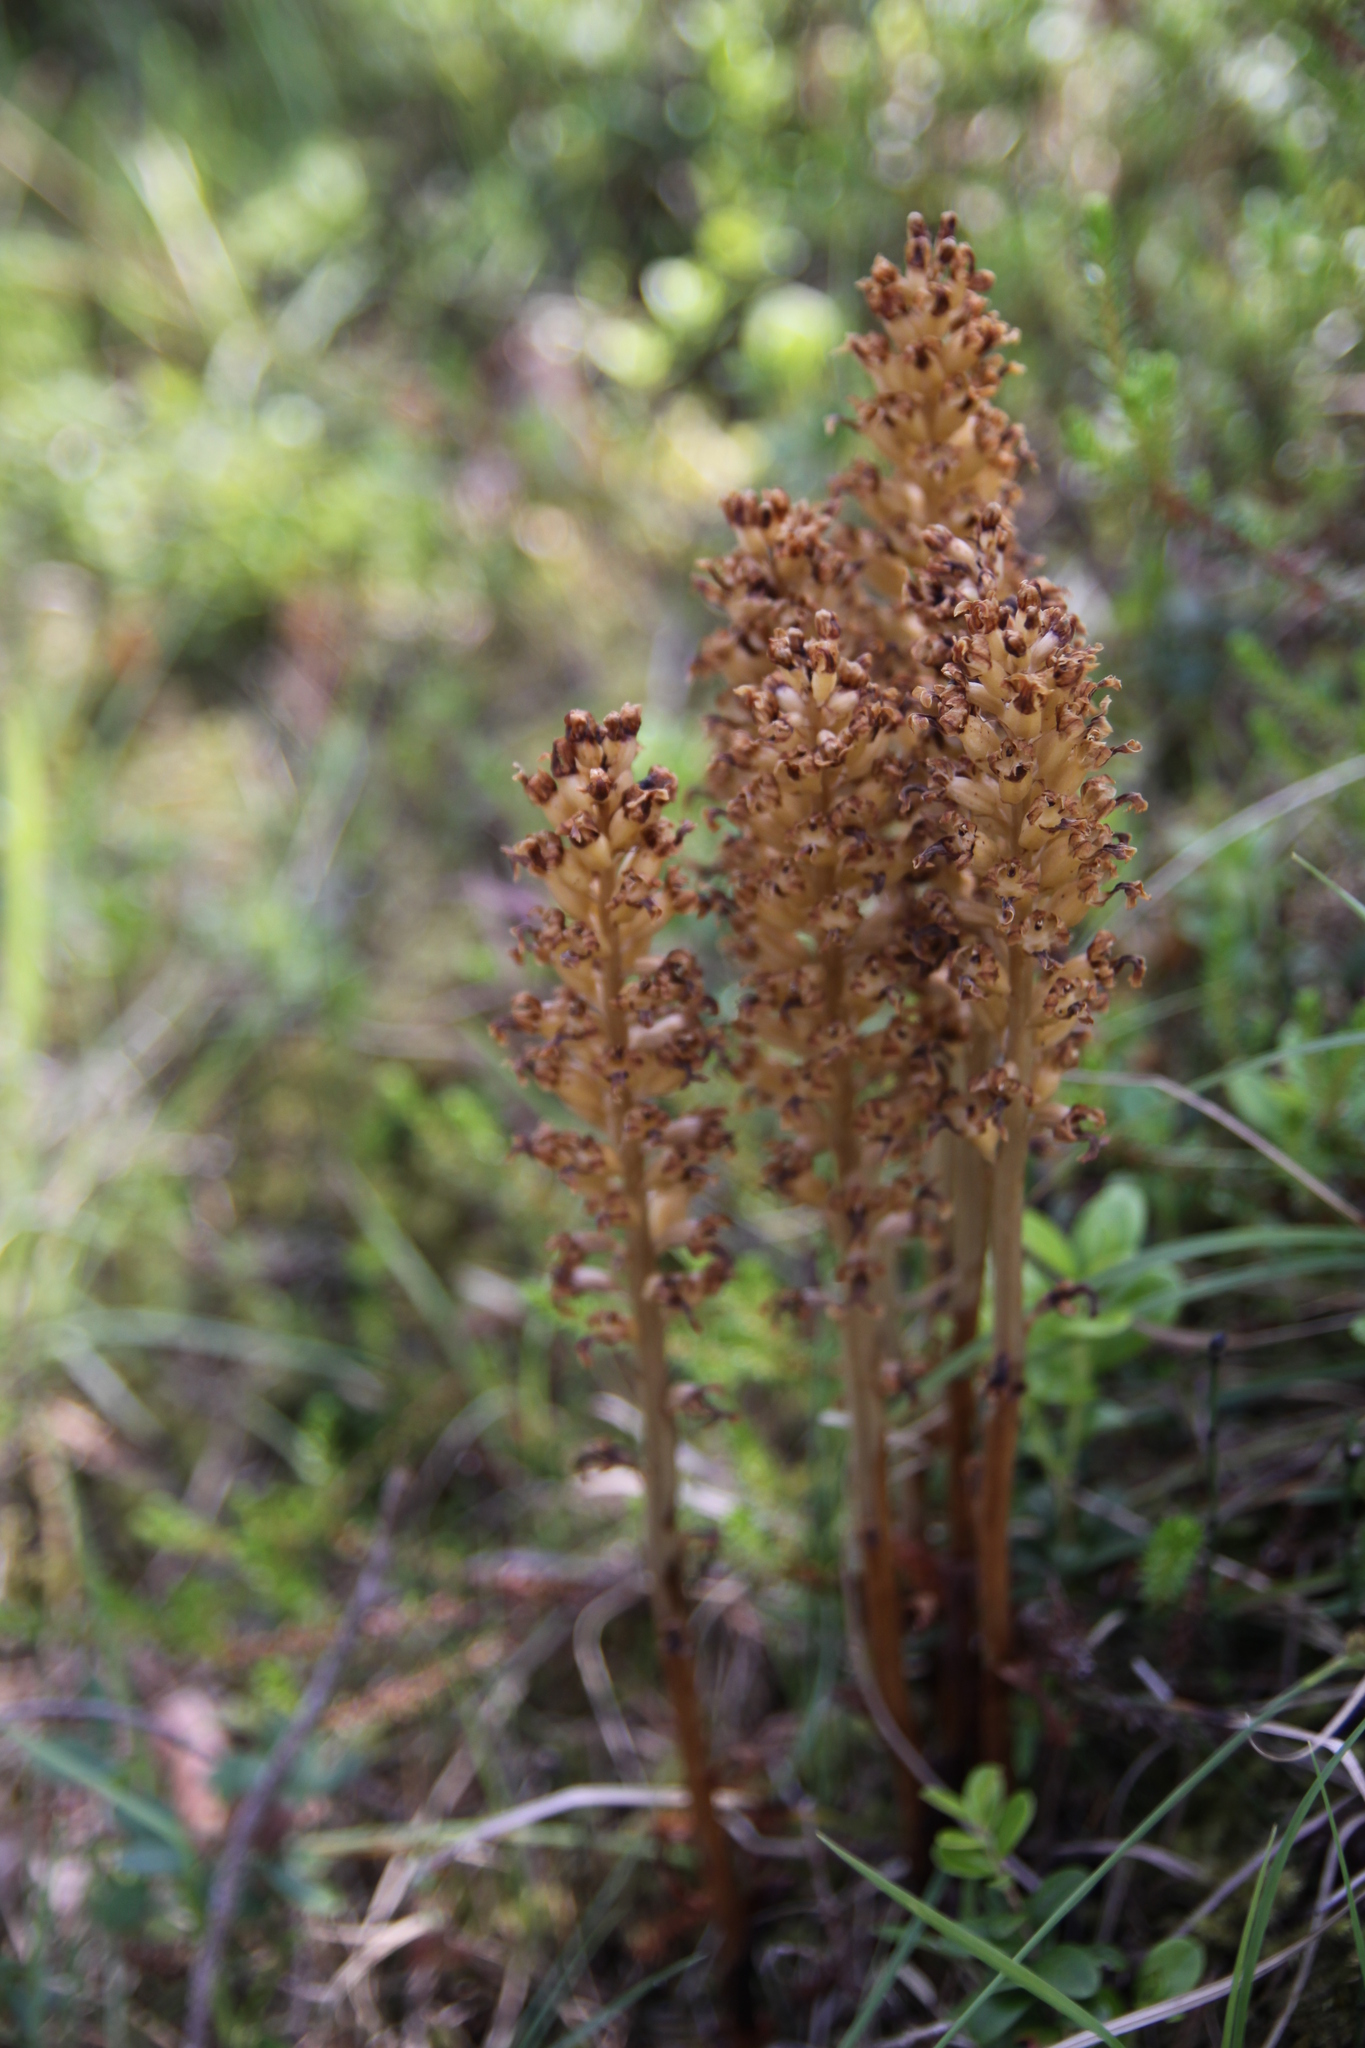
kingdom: Plantae
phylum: Tracheophyta
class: Liliopsida
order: Asparagales
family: Orchidaceae
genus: Neottia
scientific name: Neottia nidus-avis
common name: Bird's-nest orchid
